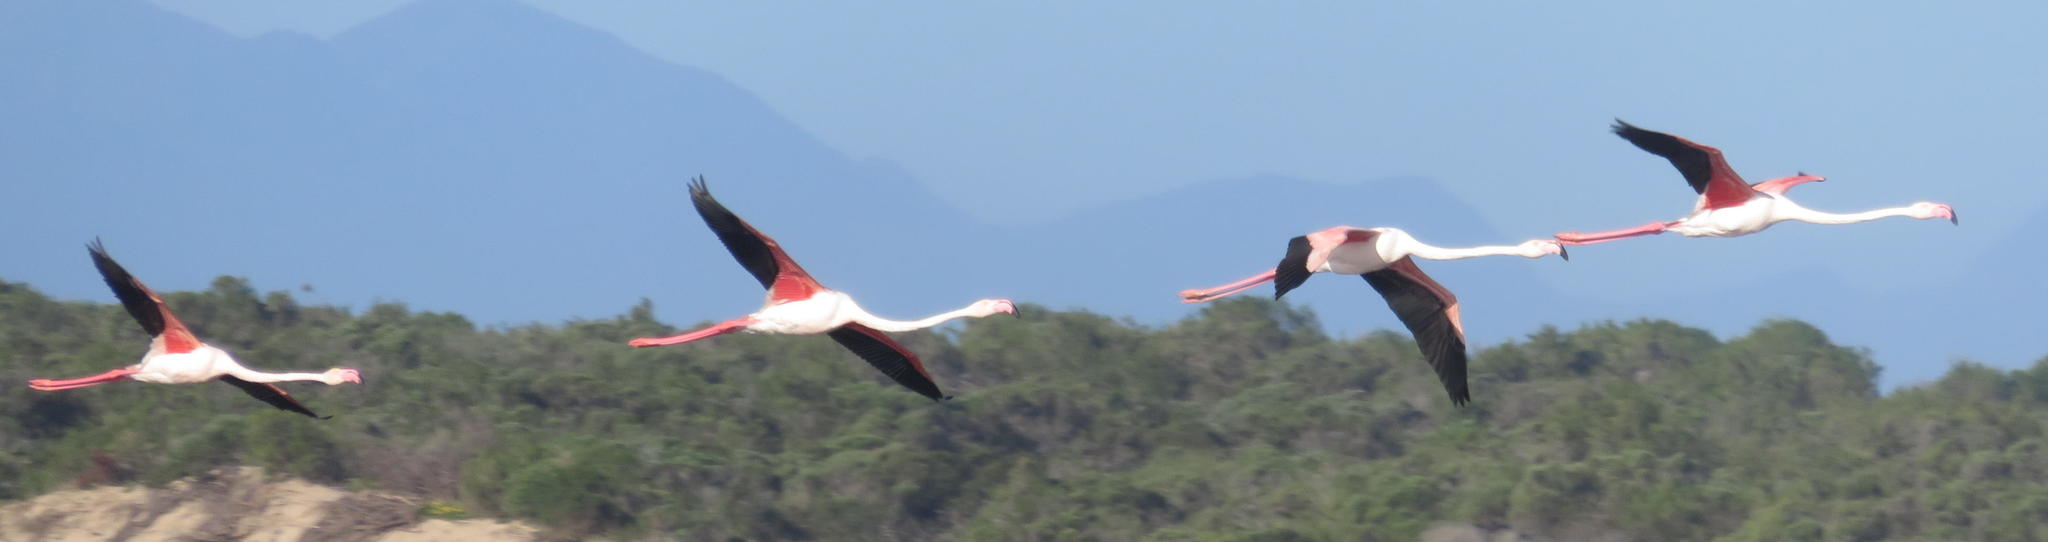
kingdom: Animalia
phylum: Chordata
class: Aves
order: Phoenicopteriformes
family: Phoenicopteridae
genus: Phoenicopterus
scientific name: Phoenicopterus roseus
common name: Greater flamingo
